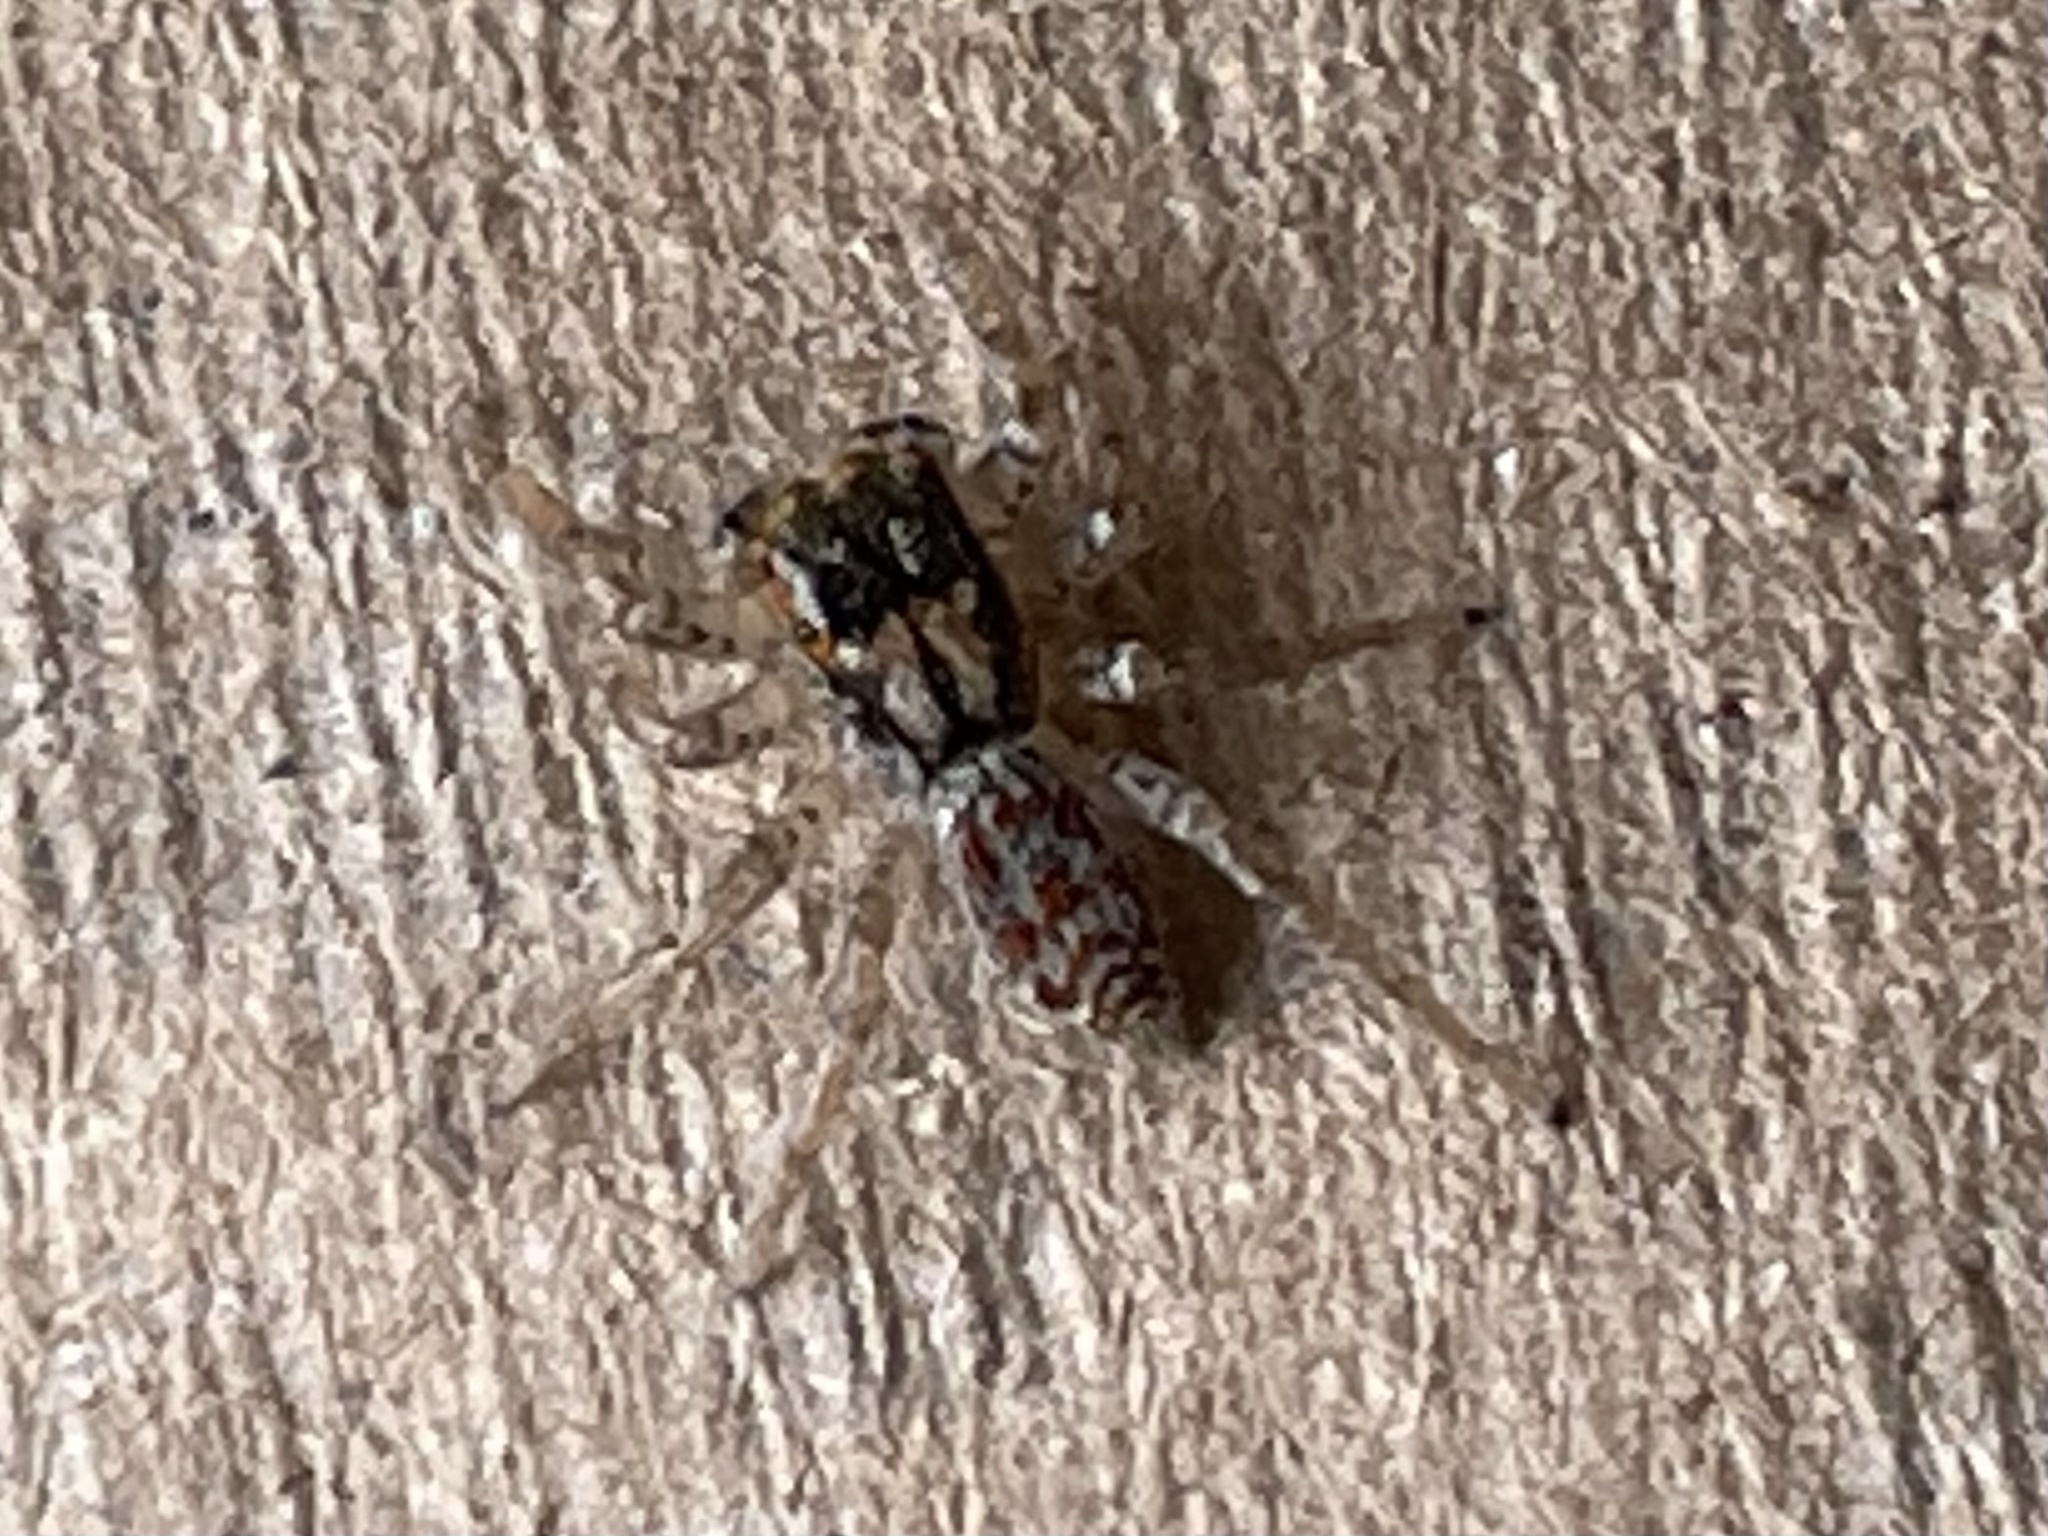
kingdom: Animalia
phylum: Arthropoda
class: Arachnida
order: Araneae
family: Salticidae
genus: Maevia
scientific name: Maevia inclemens
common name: Dimorphic jumper
